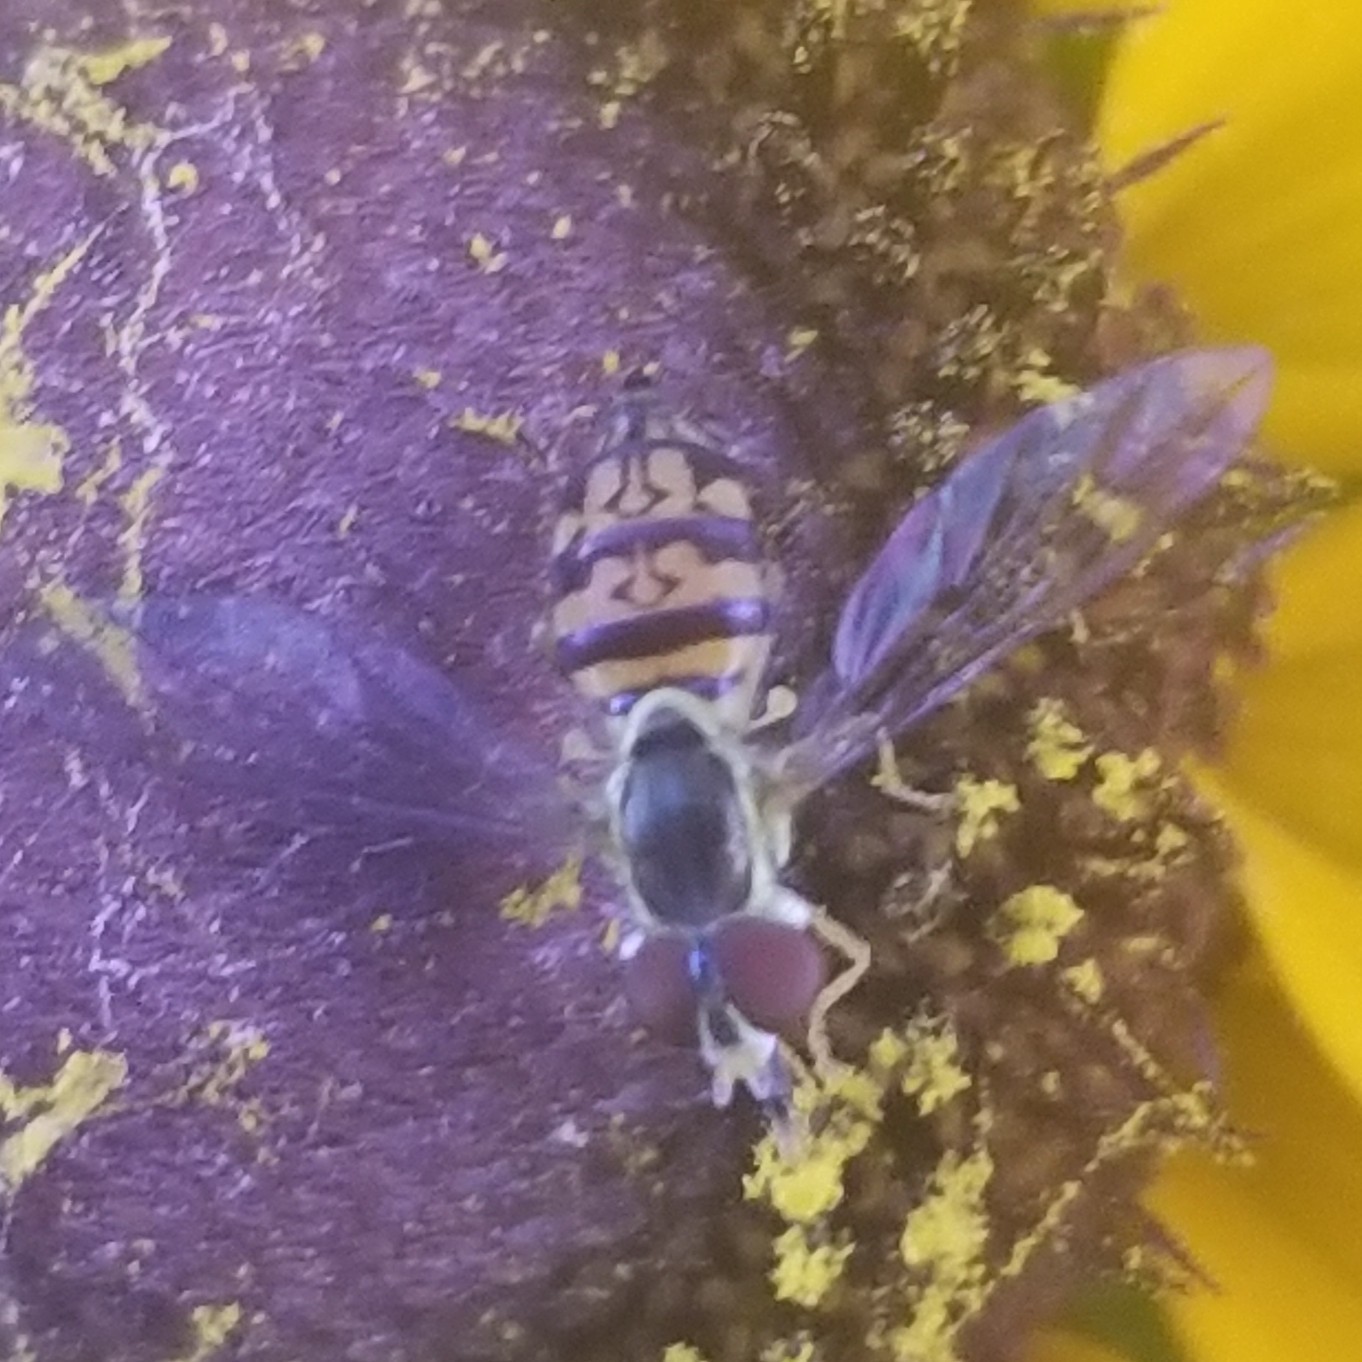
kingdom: Animalia
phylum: Arthropoda
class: Insecta
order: Diptera
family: Syrphidae
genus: Toxomerus
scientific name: Toxomerus geminatus
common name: Eastern calligrapher
